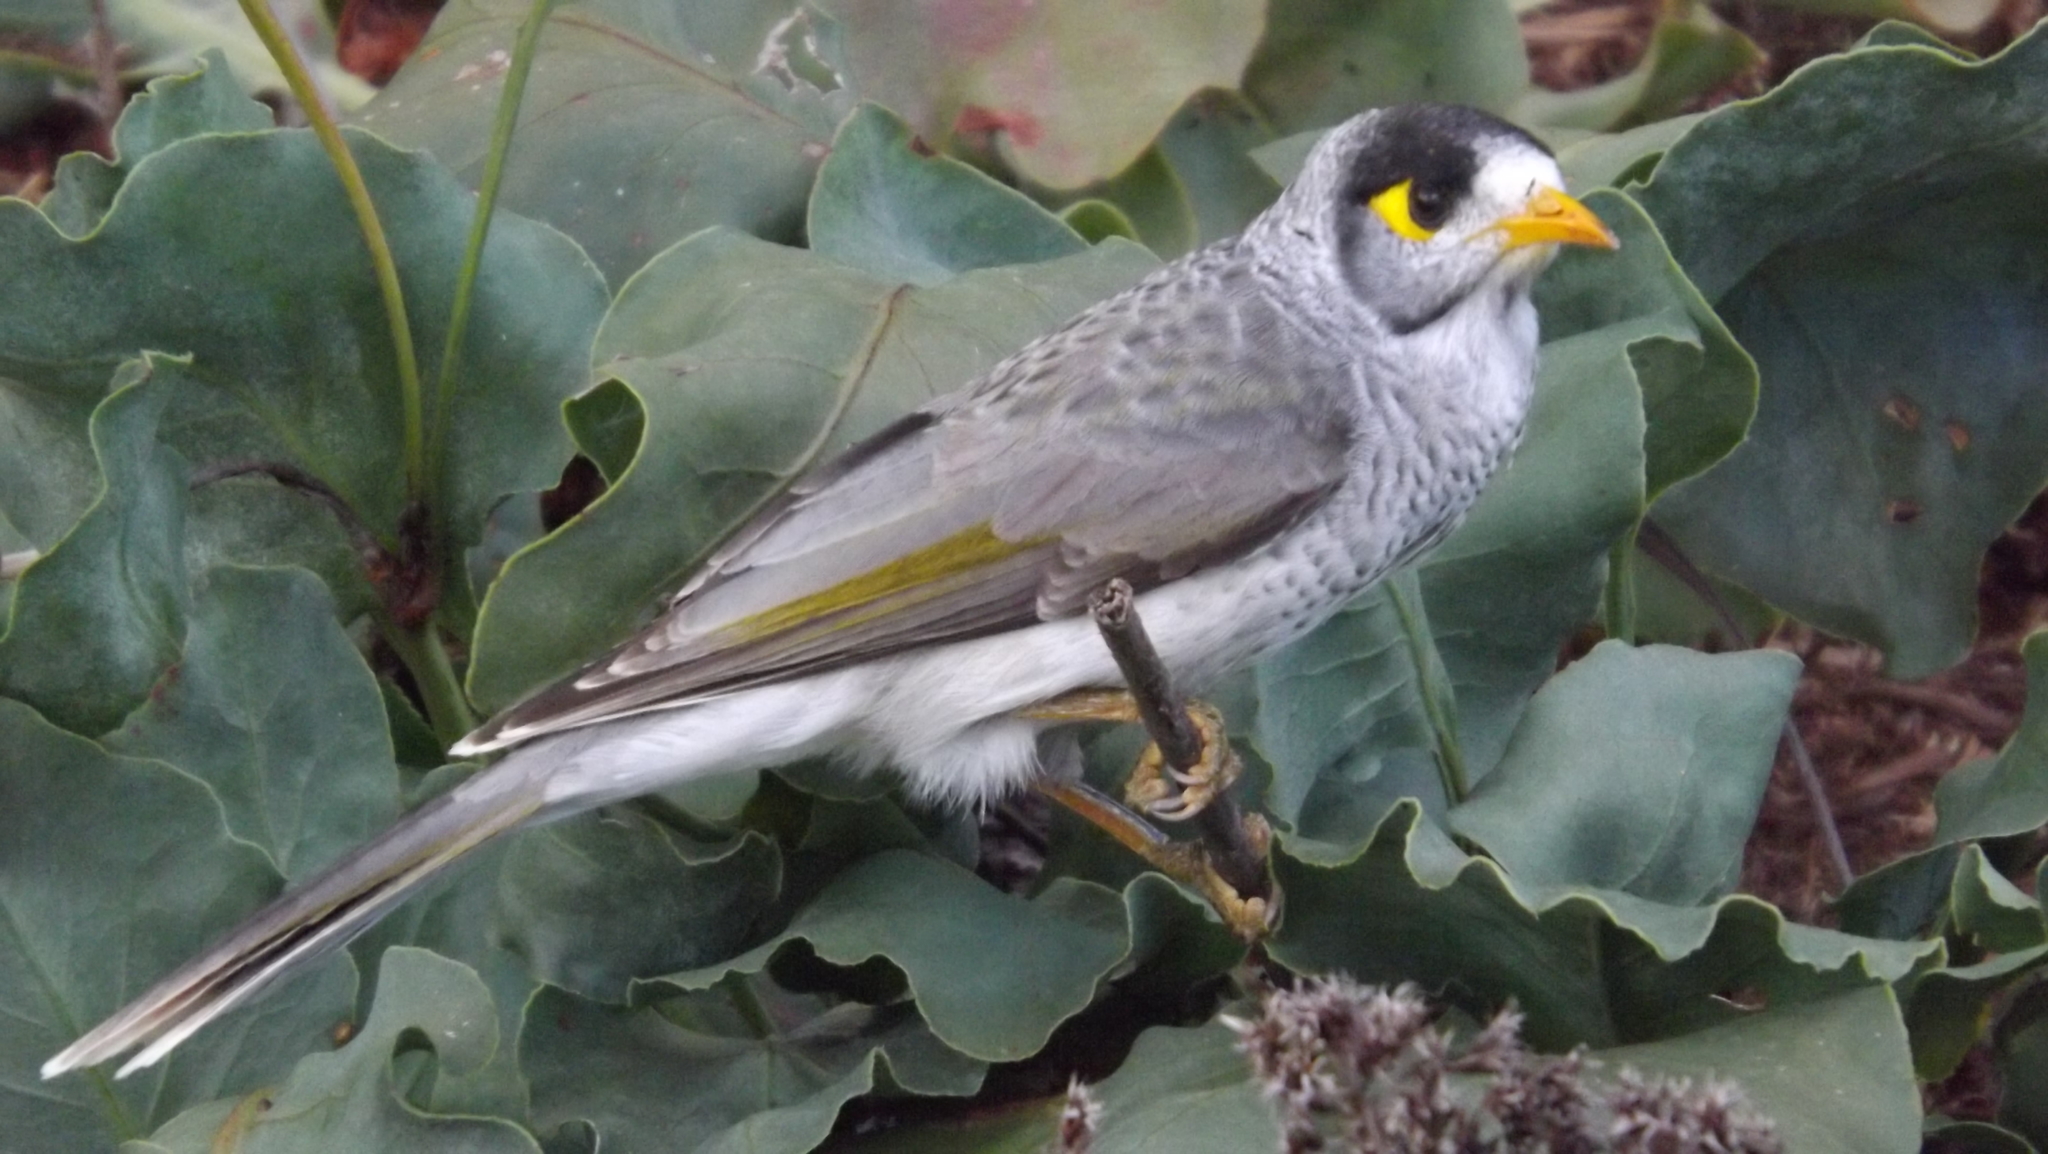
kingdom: Animalia
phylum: Chordata
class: Aves
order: Passeriformes
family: Meliphagidae
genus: Manorina
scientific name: Manorina melanocephala
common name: Noisy miner
